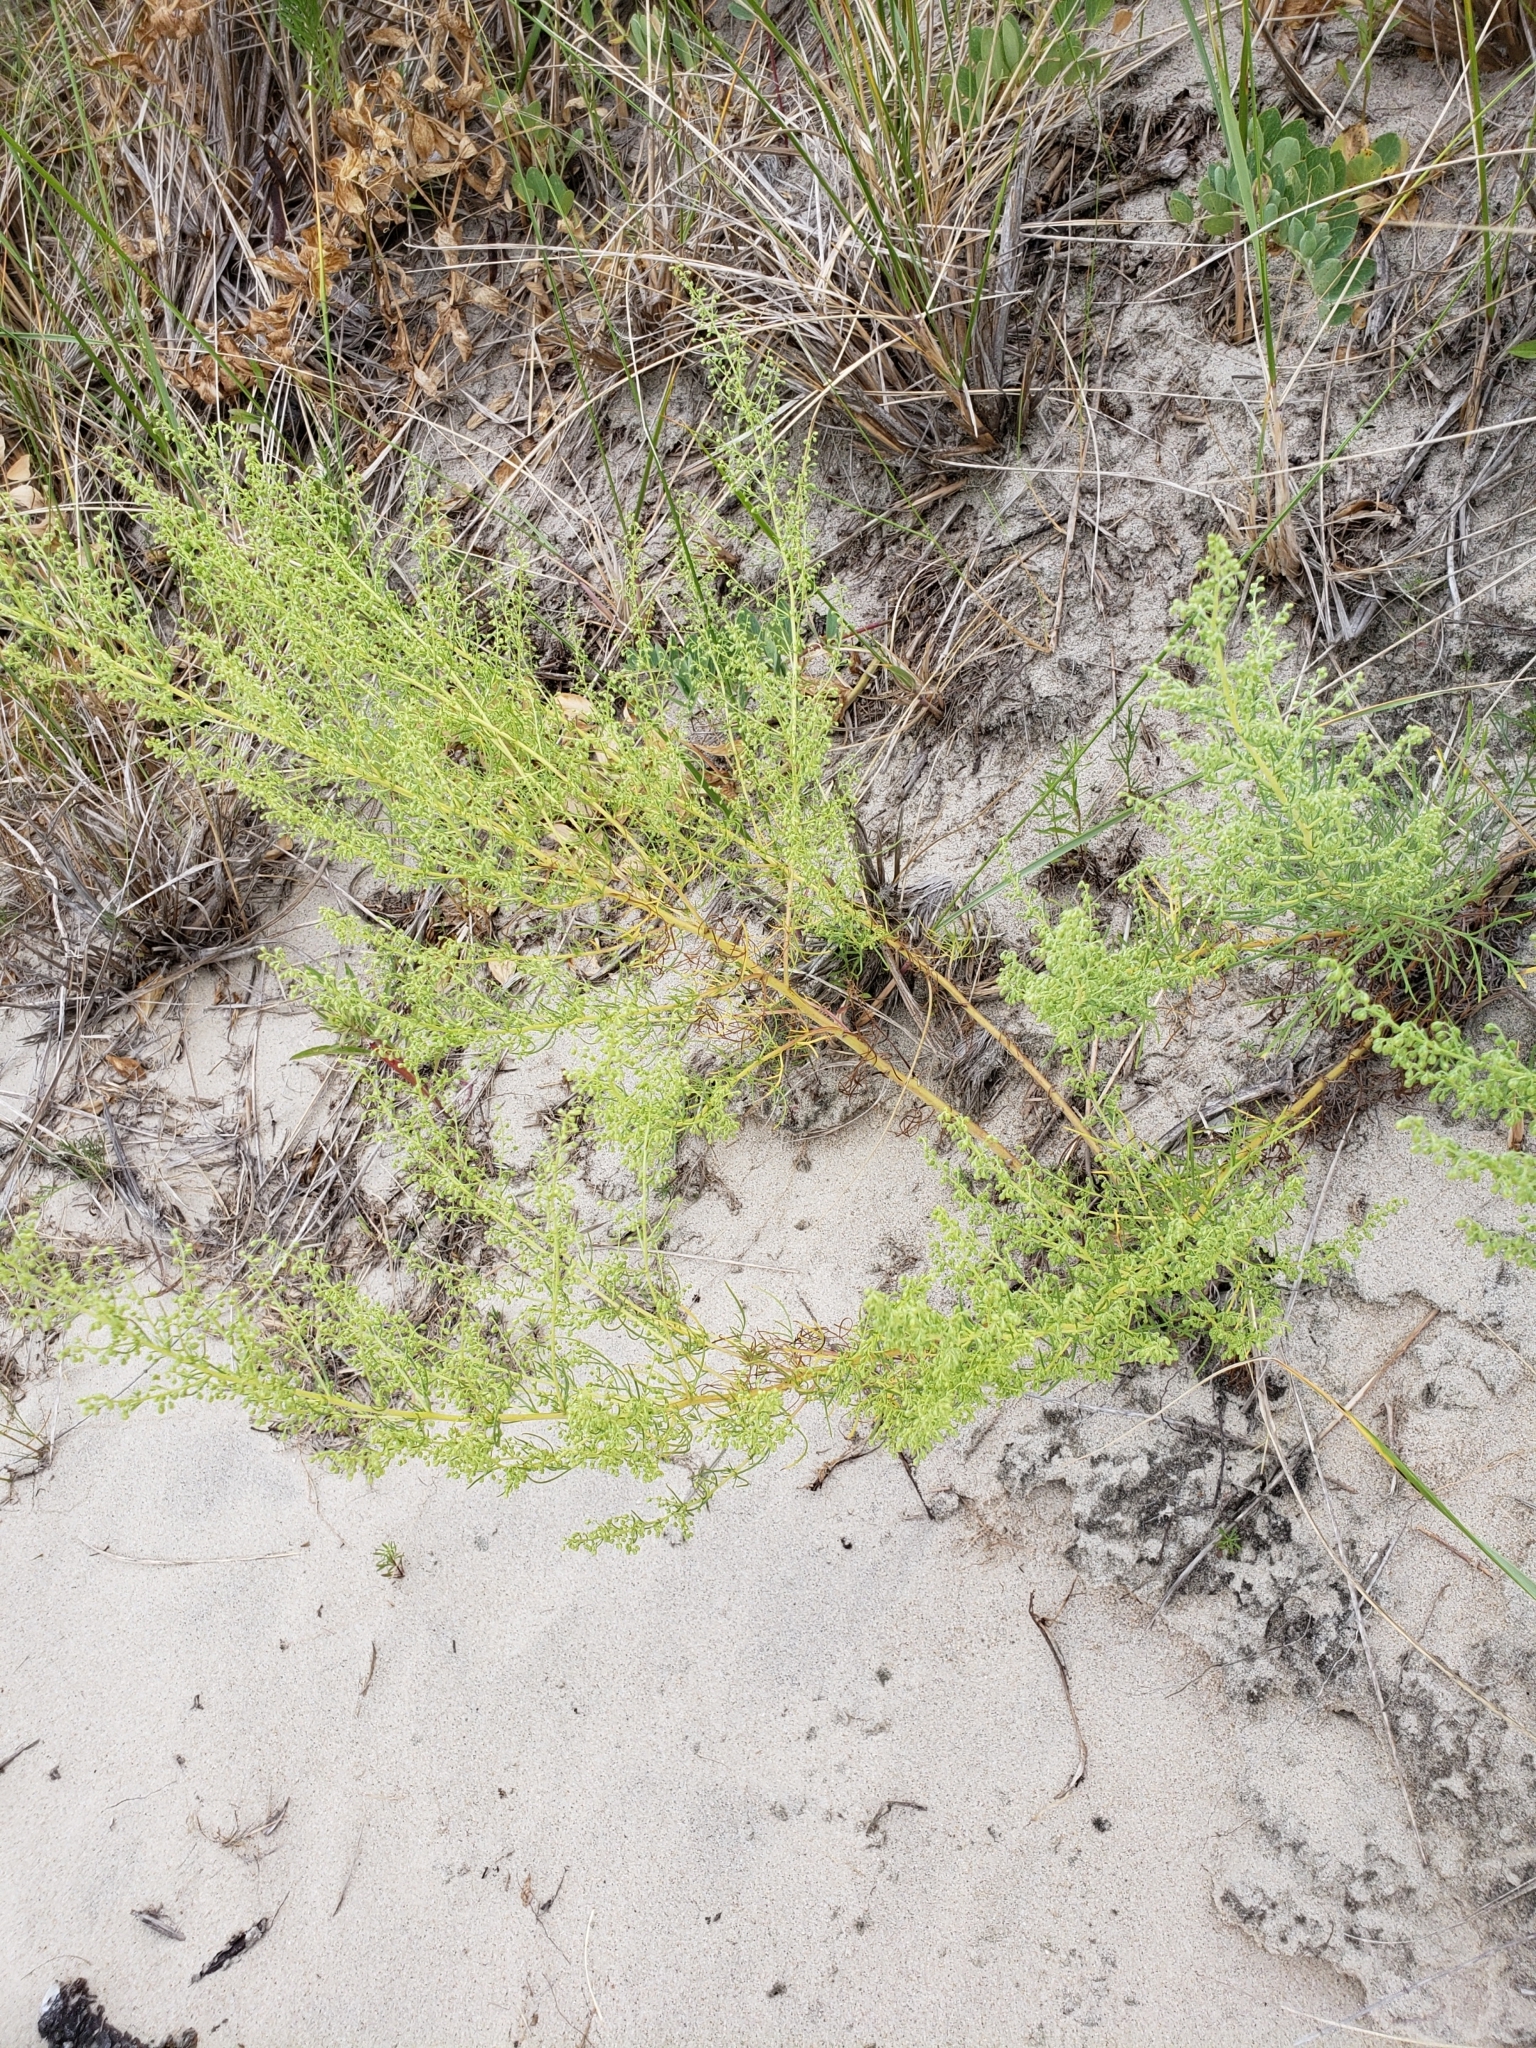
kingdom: Plantae
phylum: Tracheophyta
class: Magnoliopsida
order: Asterales
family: Asteraceae
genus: Artemisia
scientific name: Artemisia campestris
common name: Field wormwood
